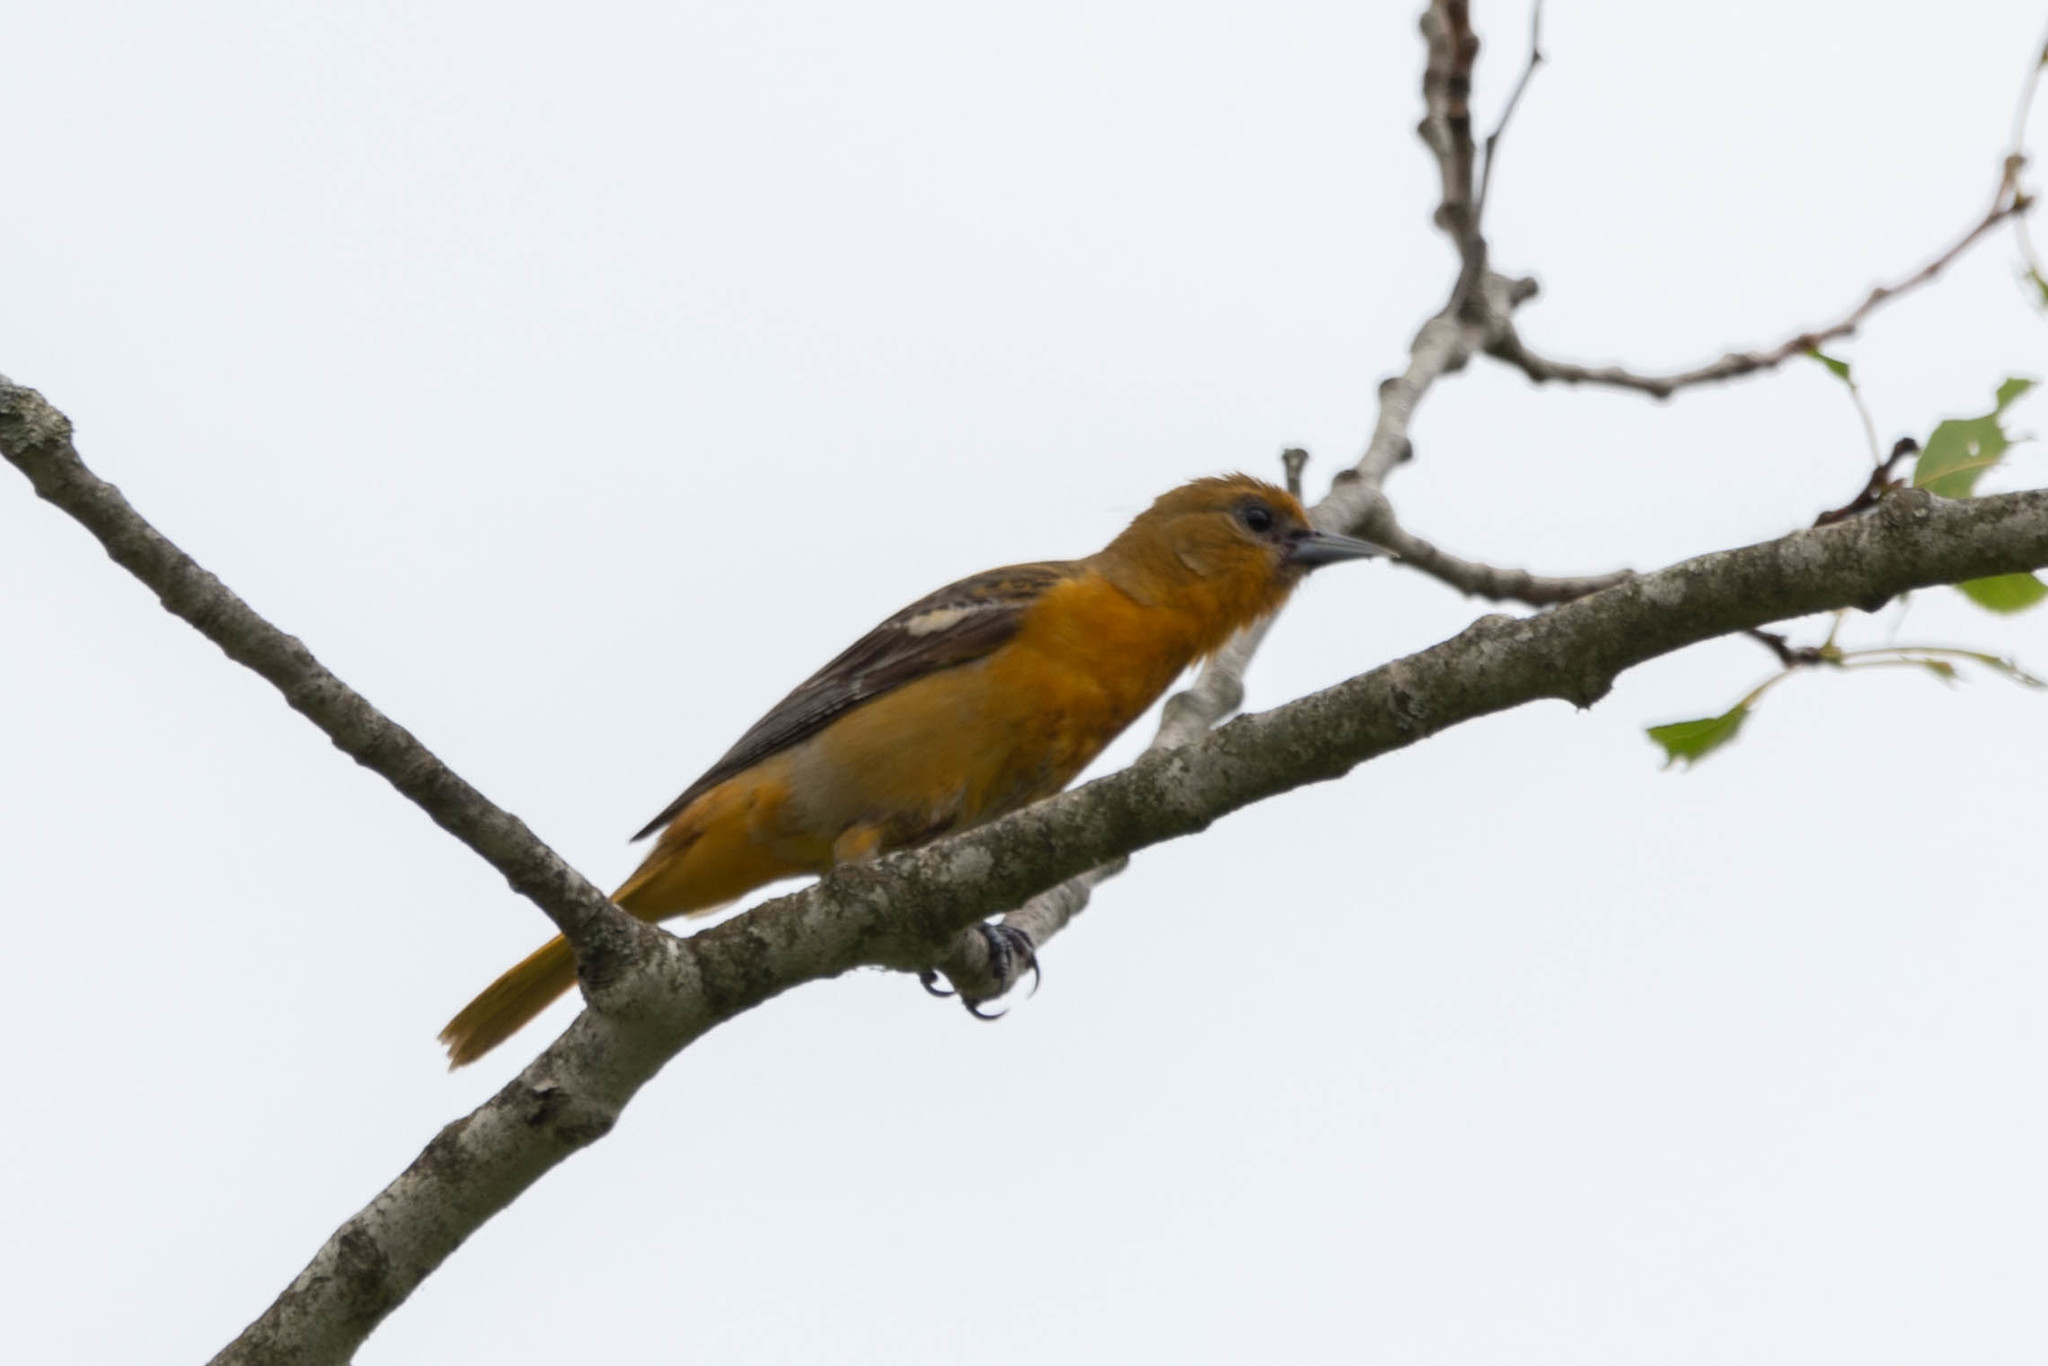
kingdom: Animalia
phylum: Chordata
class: Aves
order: Passeriformes
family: Icteridae
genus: Icterus
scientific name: Icterus galbula
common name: Baltimore oriole
